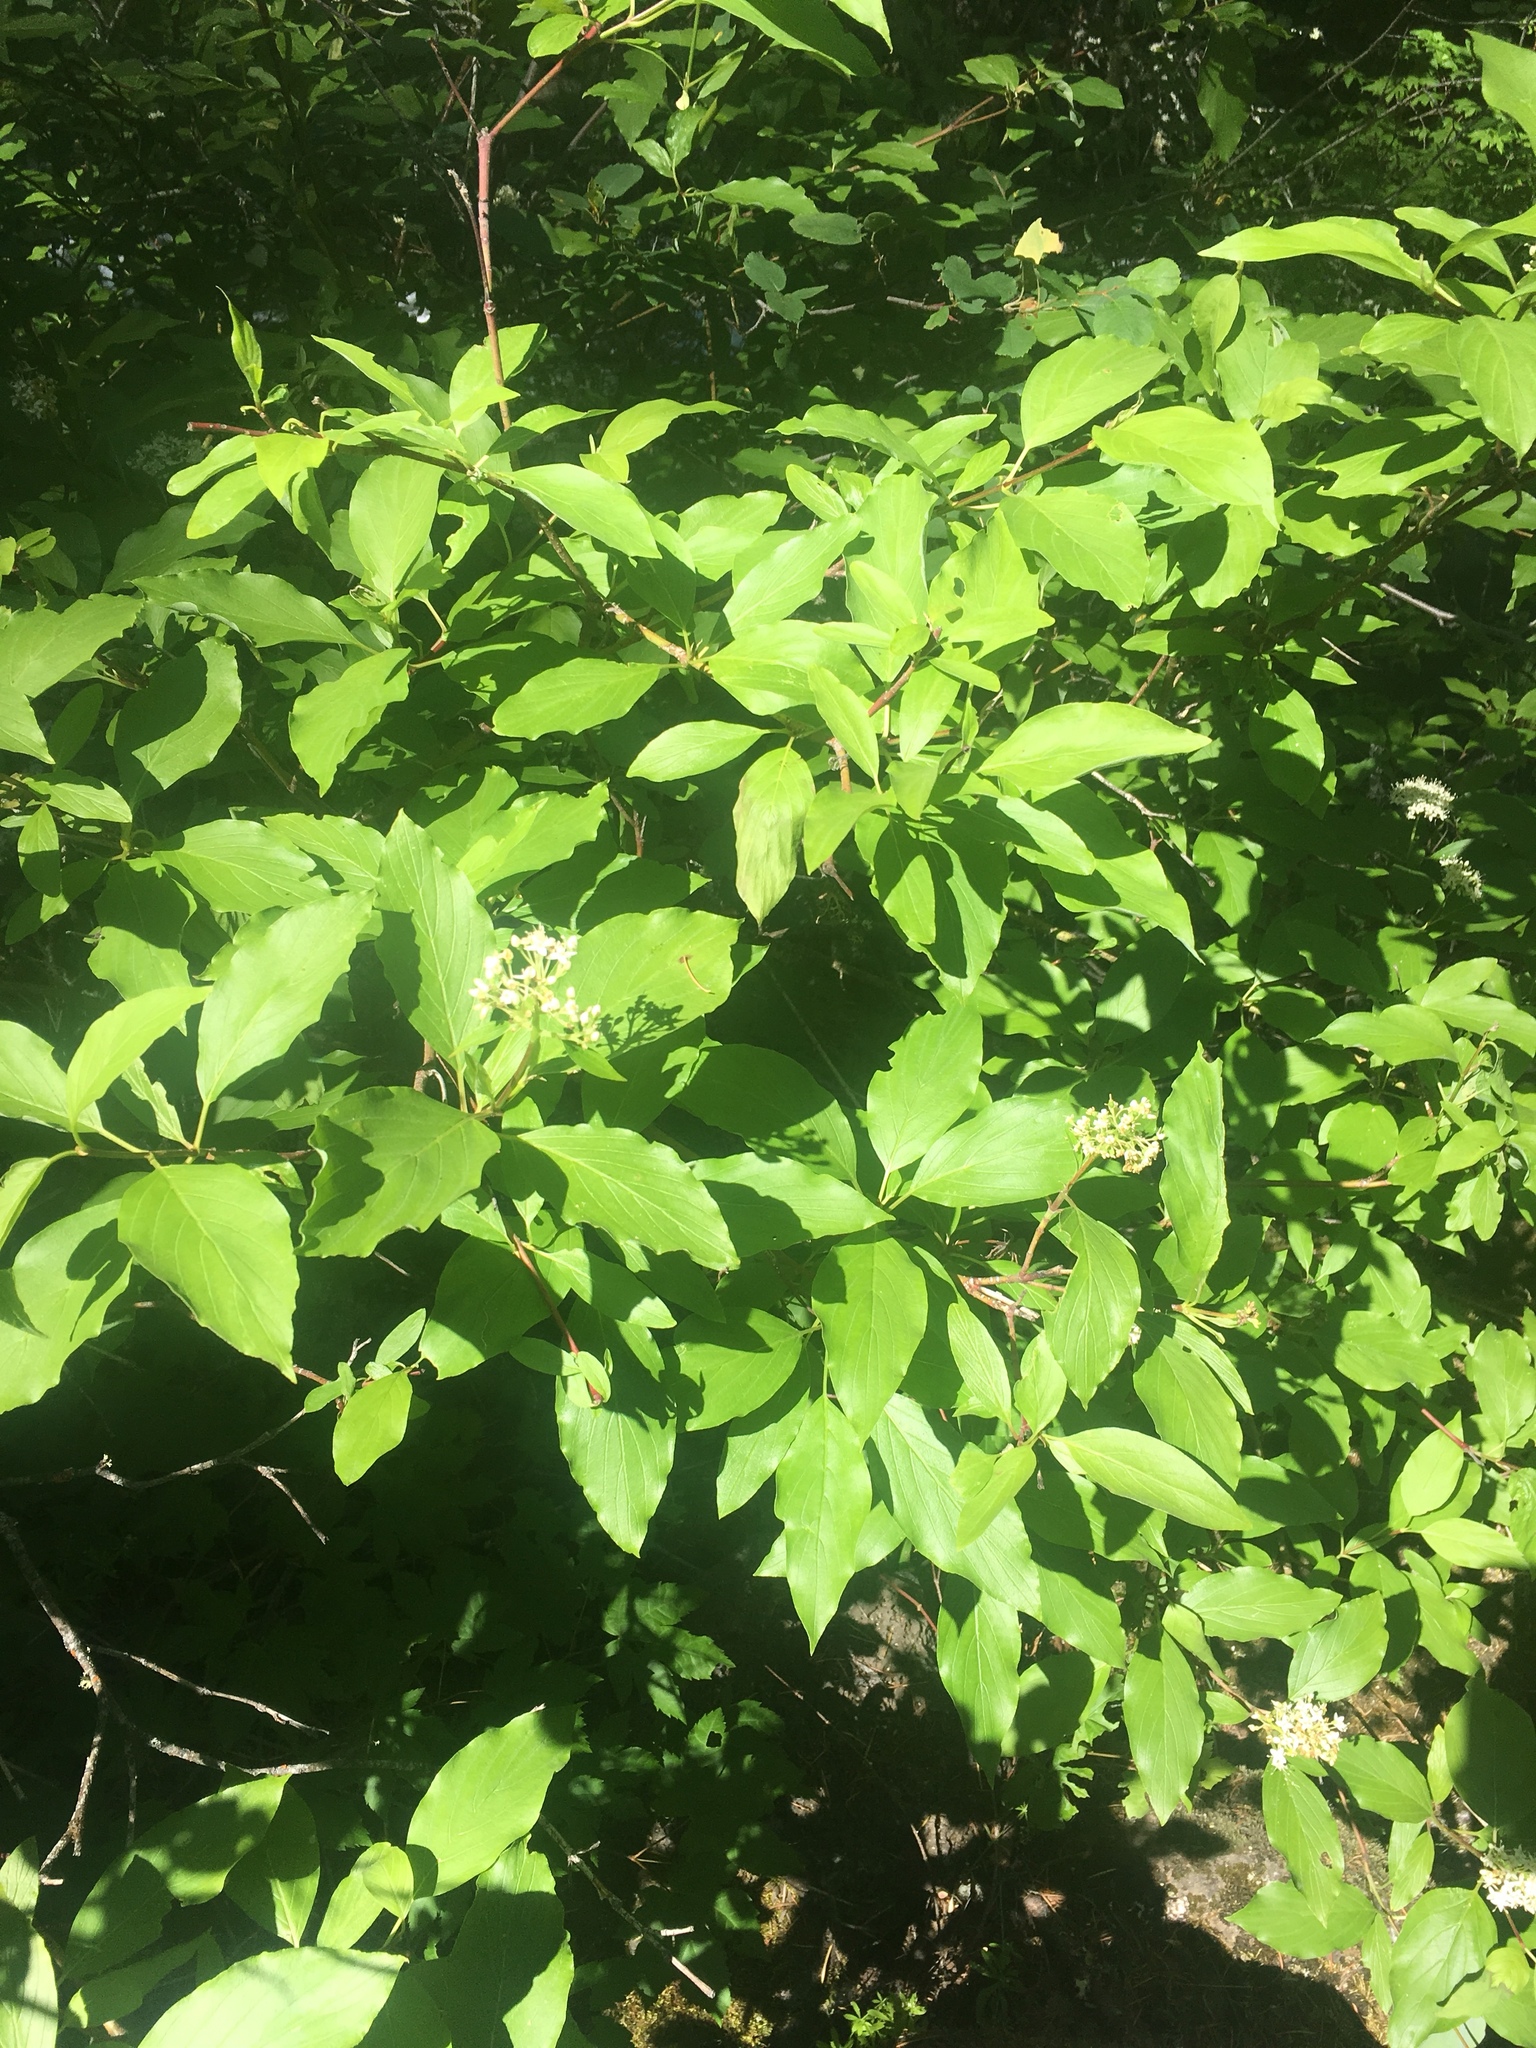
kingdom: Plantae
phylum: Tracheophyta
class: Magnoliopsida
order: Cornales
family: Cornaceae
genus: Cornus
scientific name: Cornus sericea
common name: Red-osier dogwood
